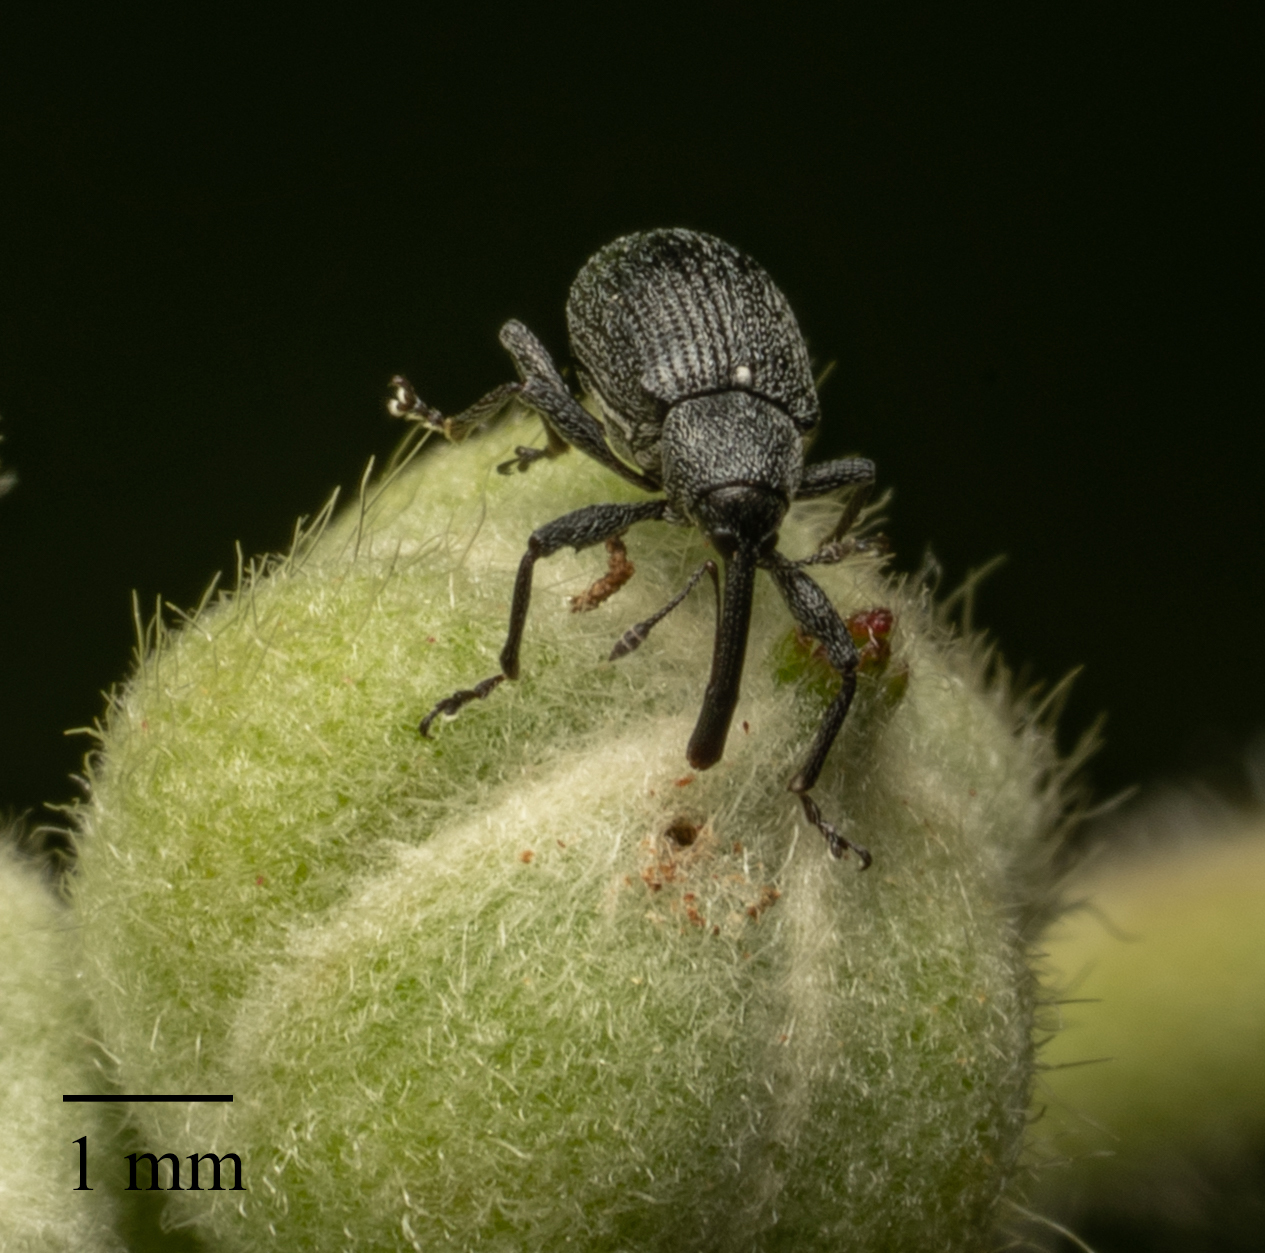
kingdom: Animalia
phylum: Arthropoda
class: Insecta
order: Coleoptera
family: Curculionidae
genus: Anthonomus
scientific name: Anthonomus rubi
